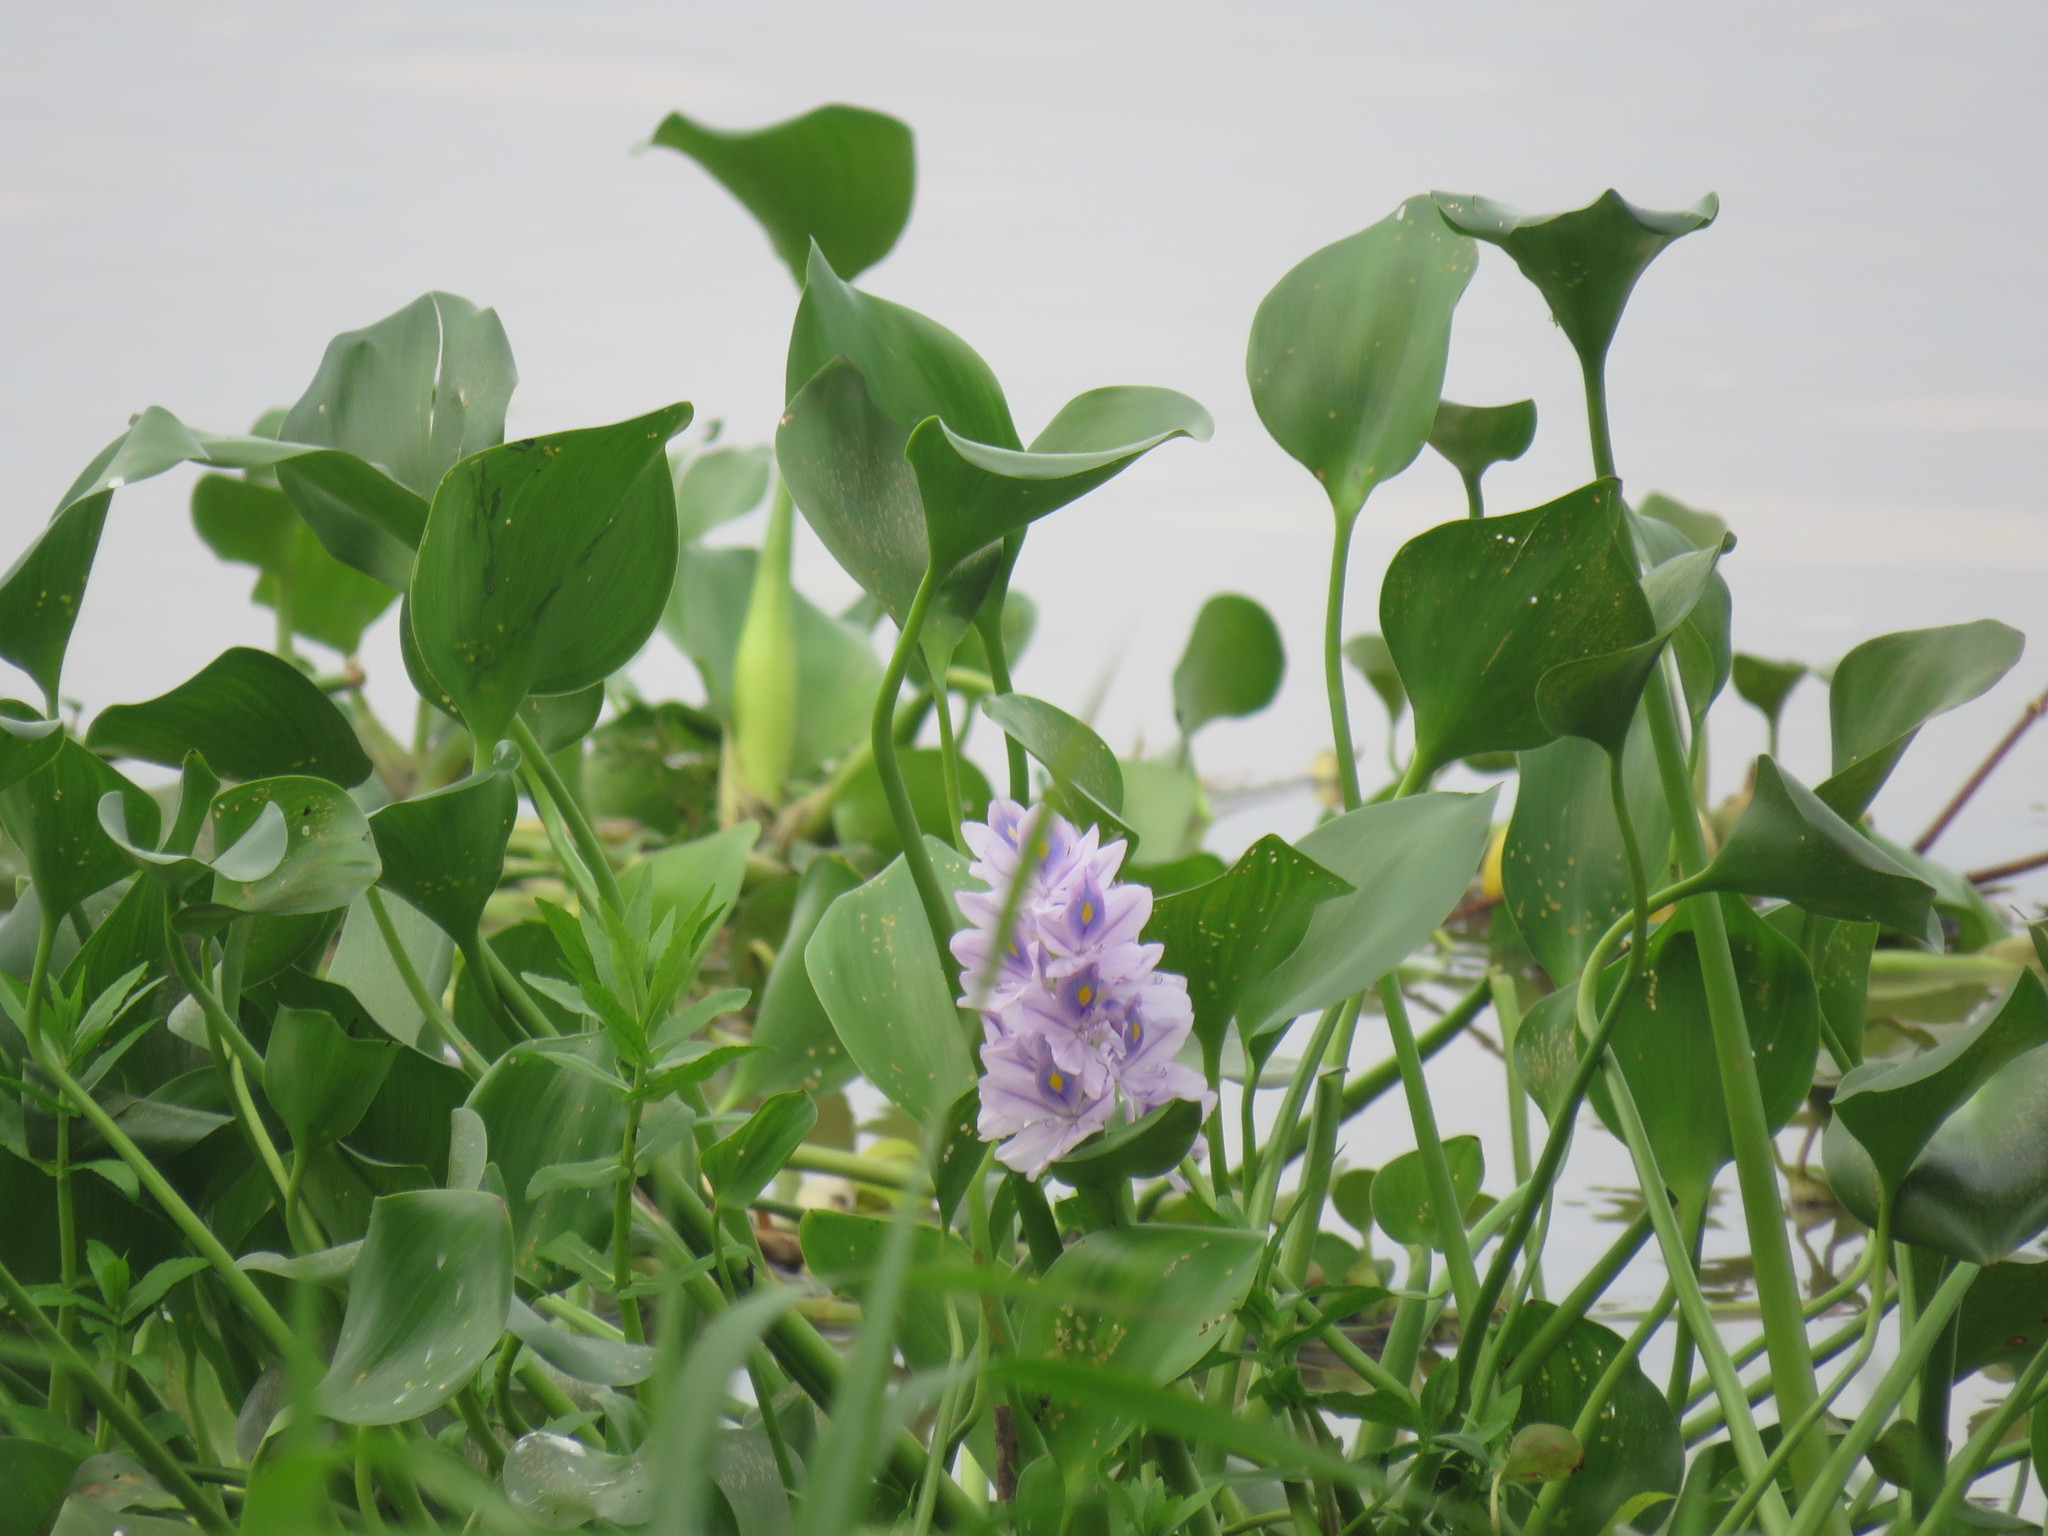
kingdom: Plantae
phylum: Tracheophyta
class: Liliopsida
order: Commelinales
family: Pontederiaceae
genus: Pontederia
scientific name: Pontederia crassipes
